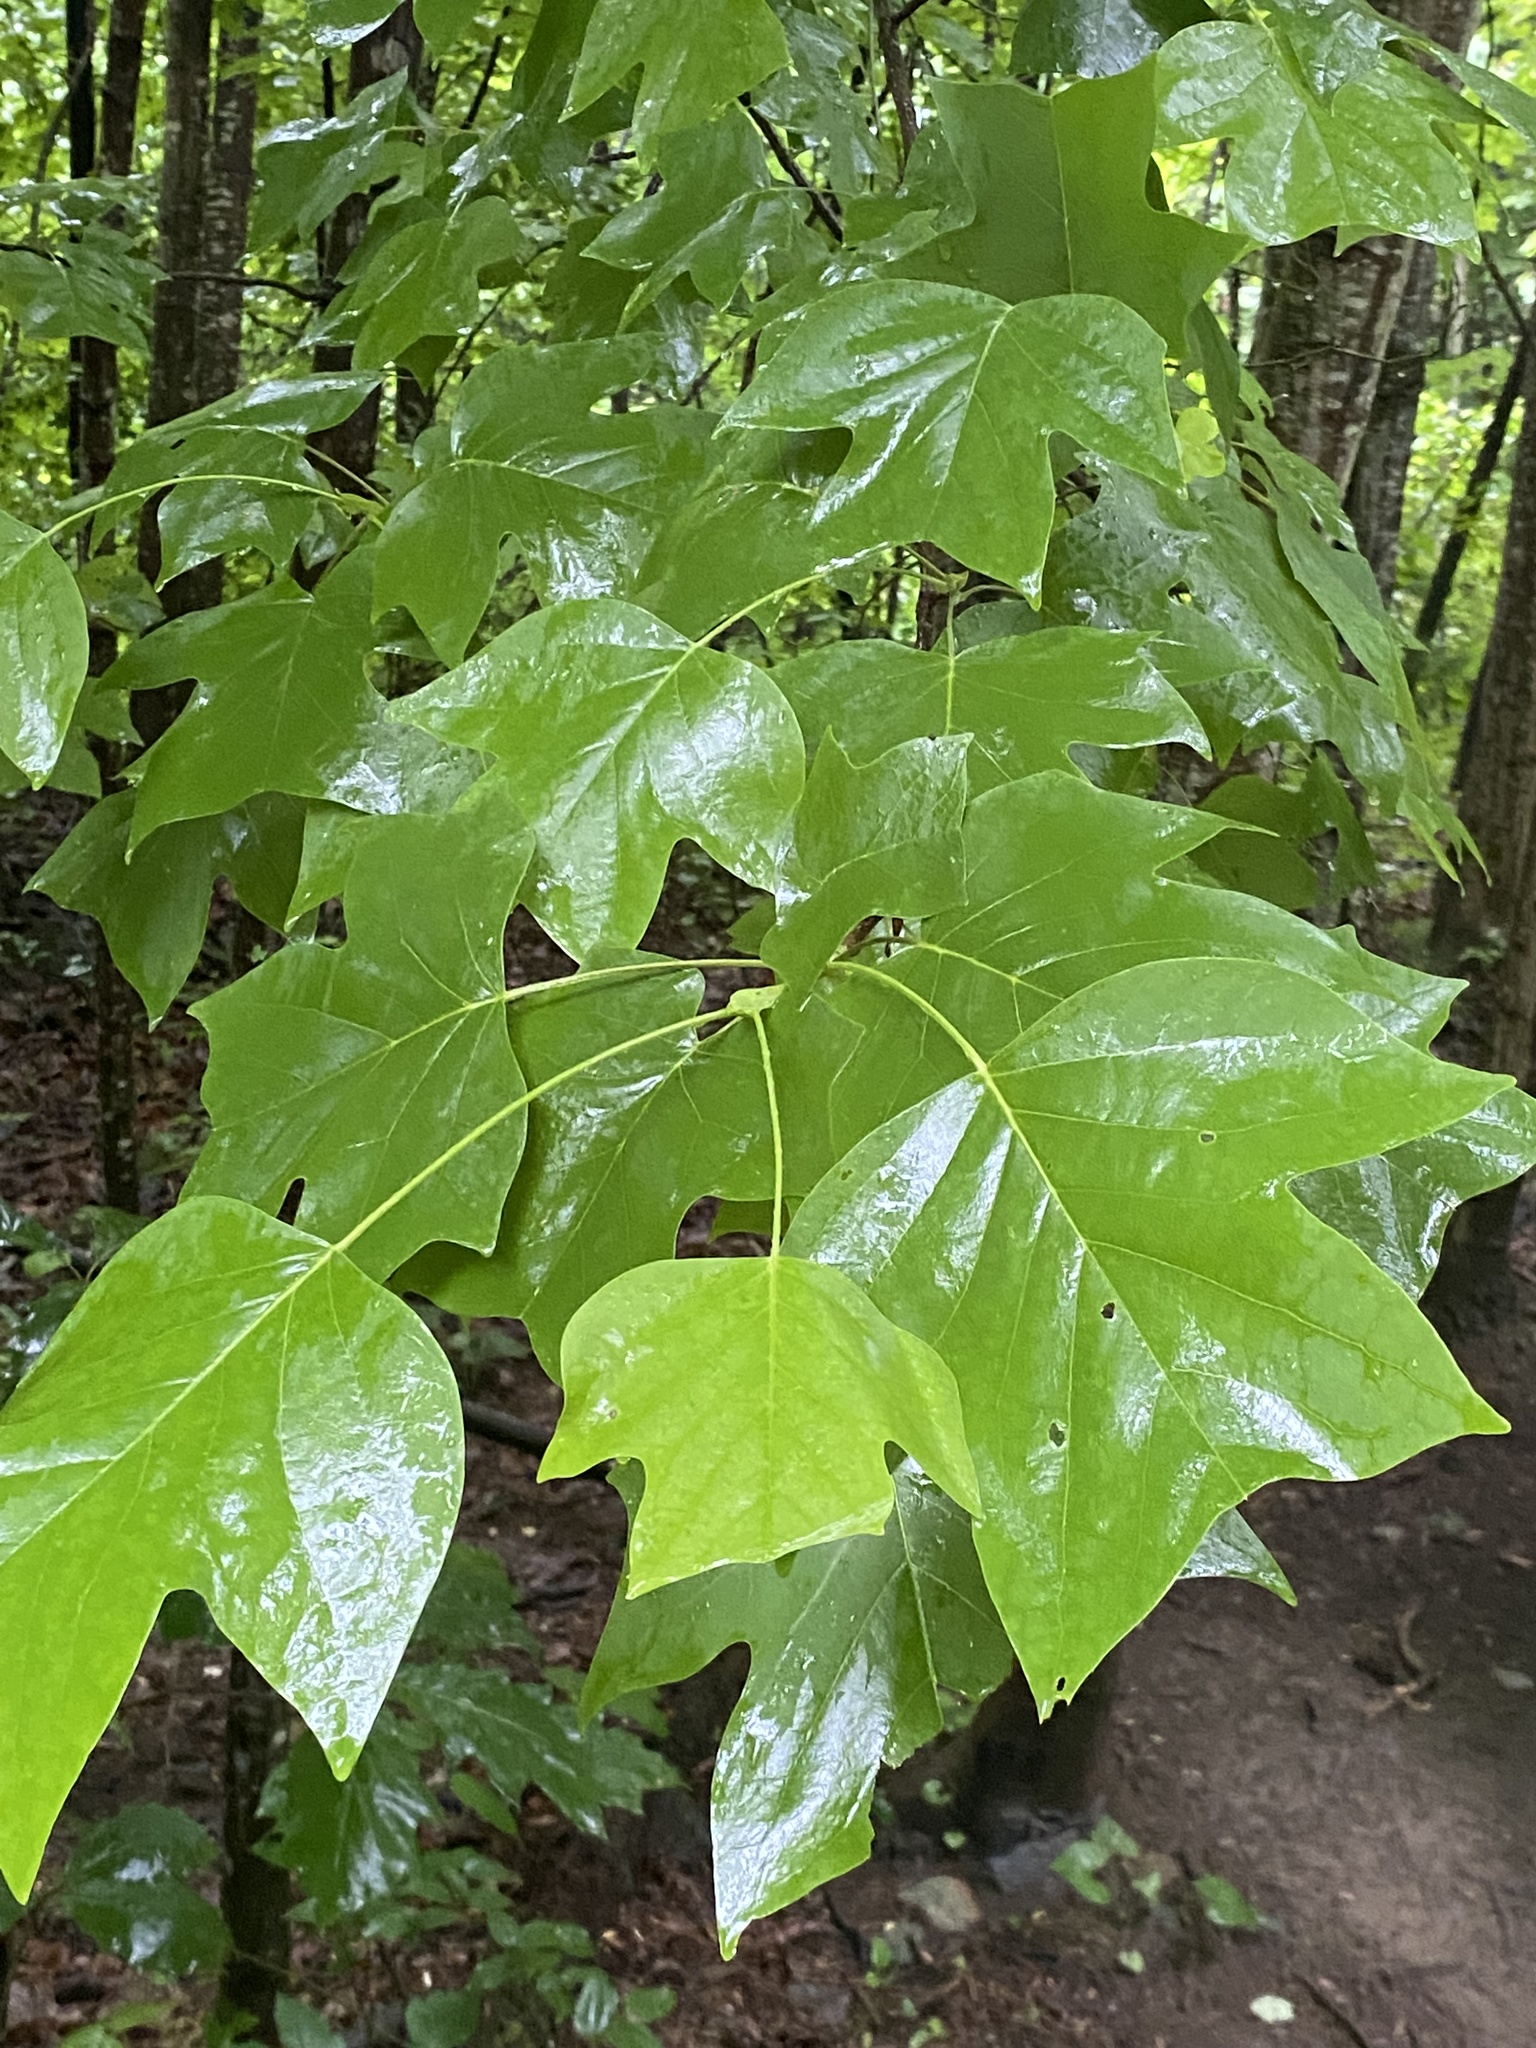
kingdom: Plantae
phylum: Tracheophyta
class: Magnoliopsida
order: Magnoliales
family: Magnoliaceae
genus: Liriodendron
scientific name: Liriodendron tulipifera
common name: Tulip tree
